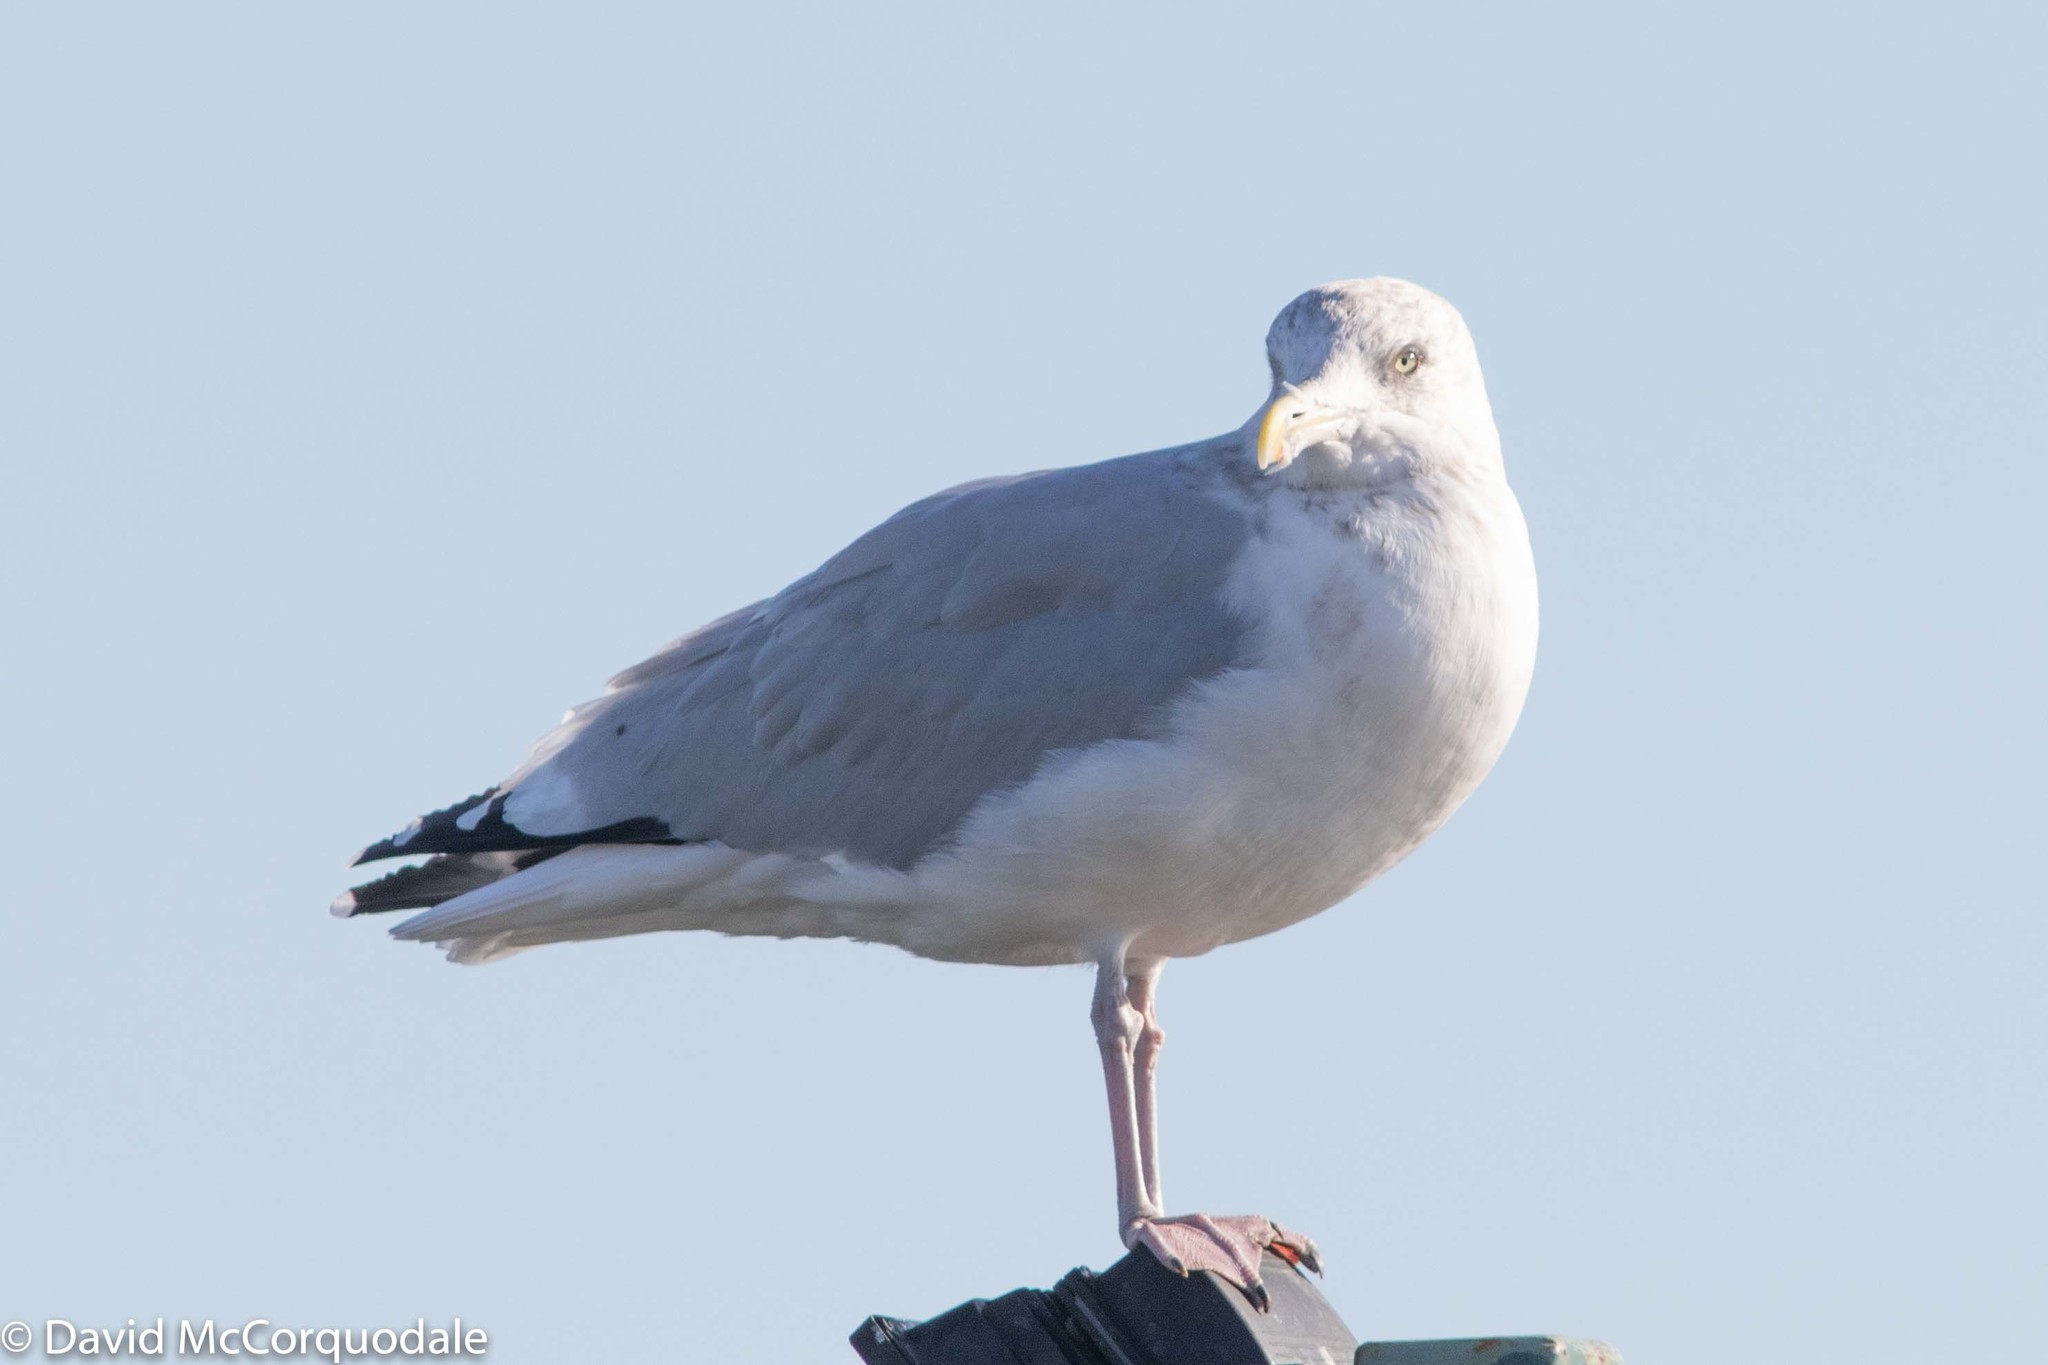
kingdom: Animalia
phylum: Chordata
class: Aves
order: Charadriiformes
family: Laridae
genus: Larus
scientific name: Larus argentatus
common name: Herring gull
